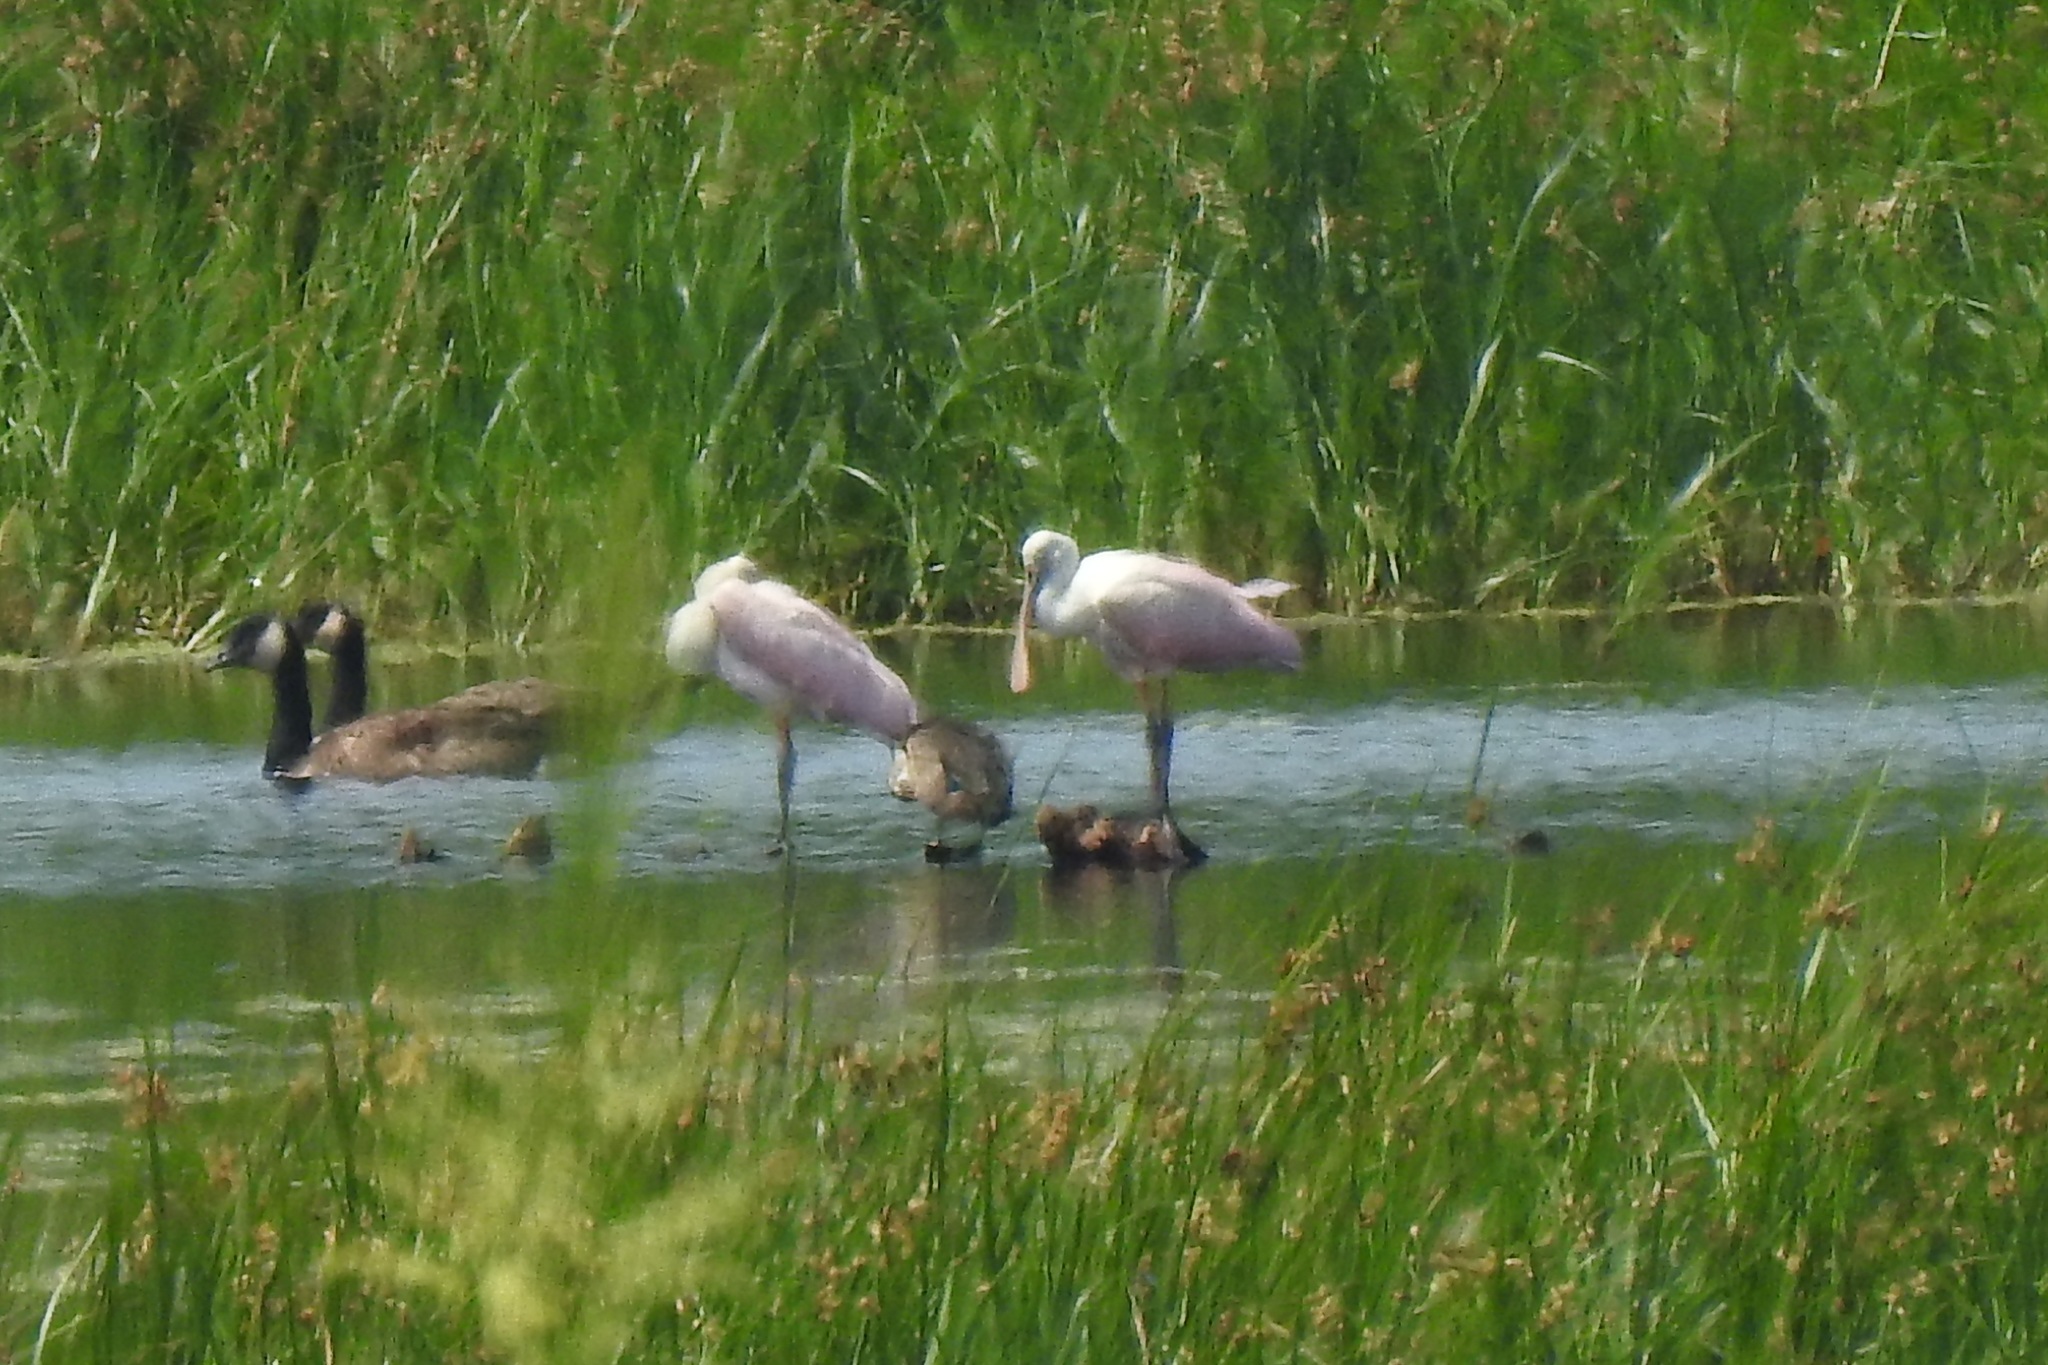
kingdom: Animalia
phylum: Chordata
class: Aves
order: Pelecaniformes
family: Threskiornithidae
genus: Platalea
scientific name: Platalea ajaja
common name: Roseate spoonbill
